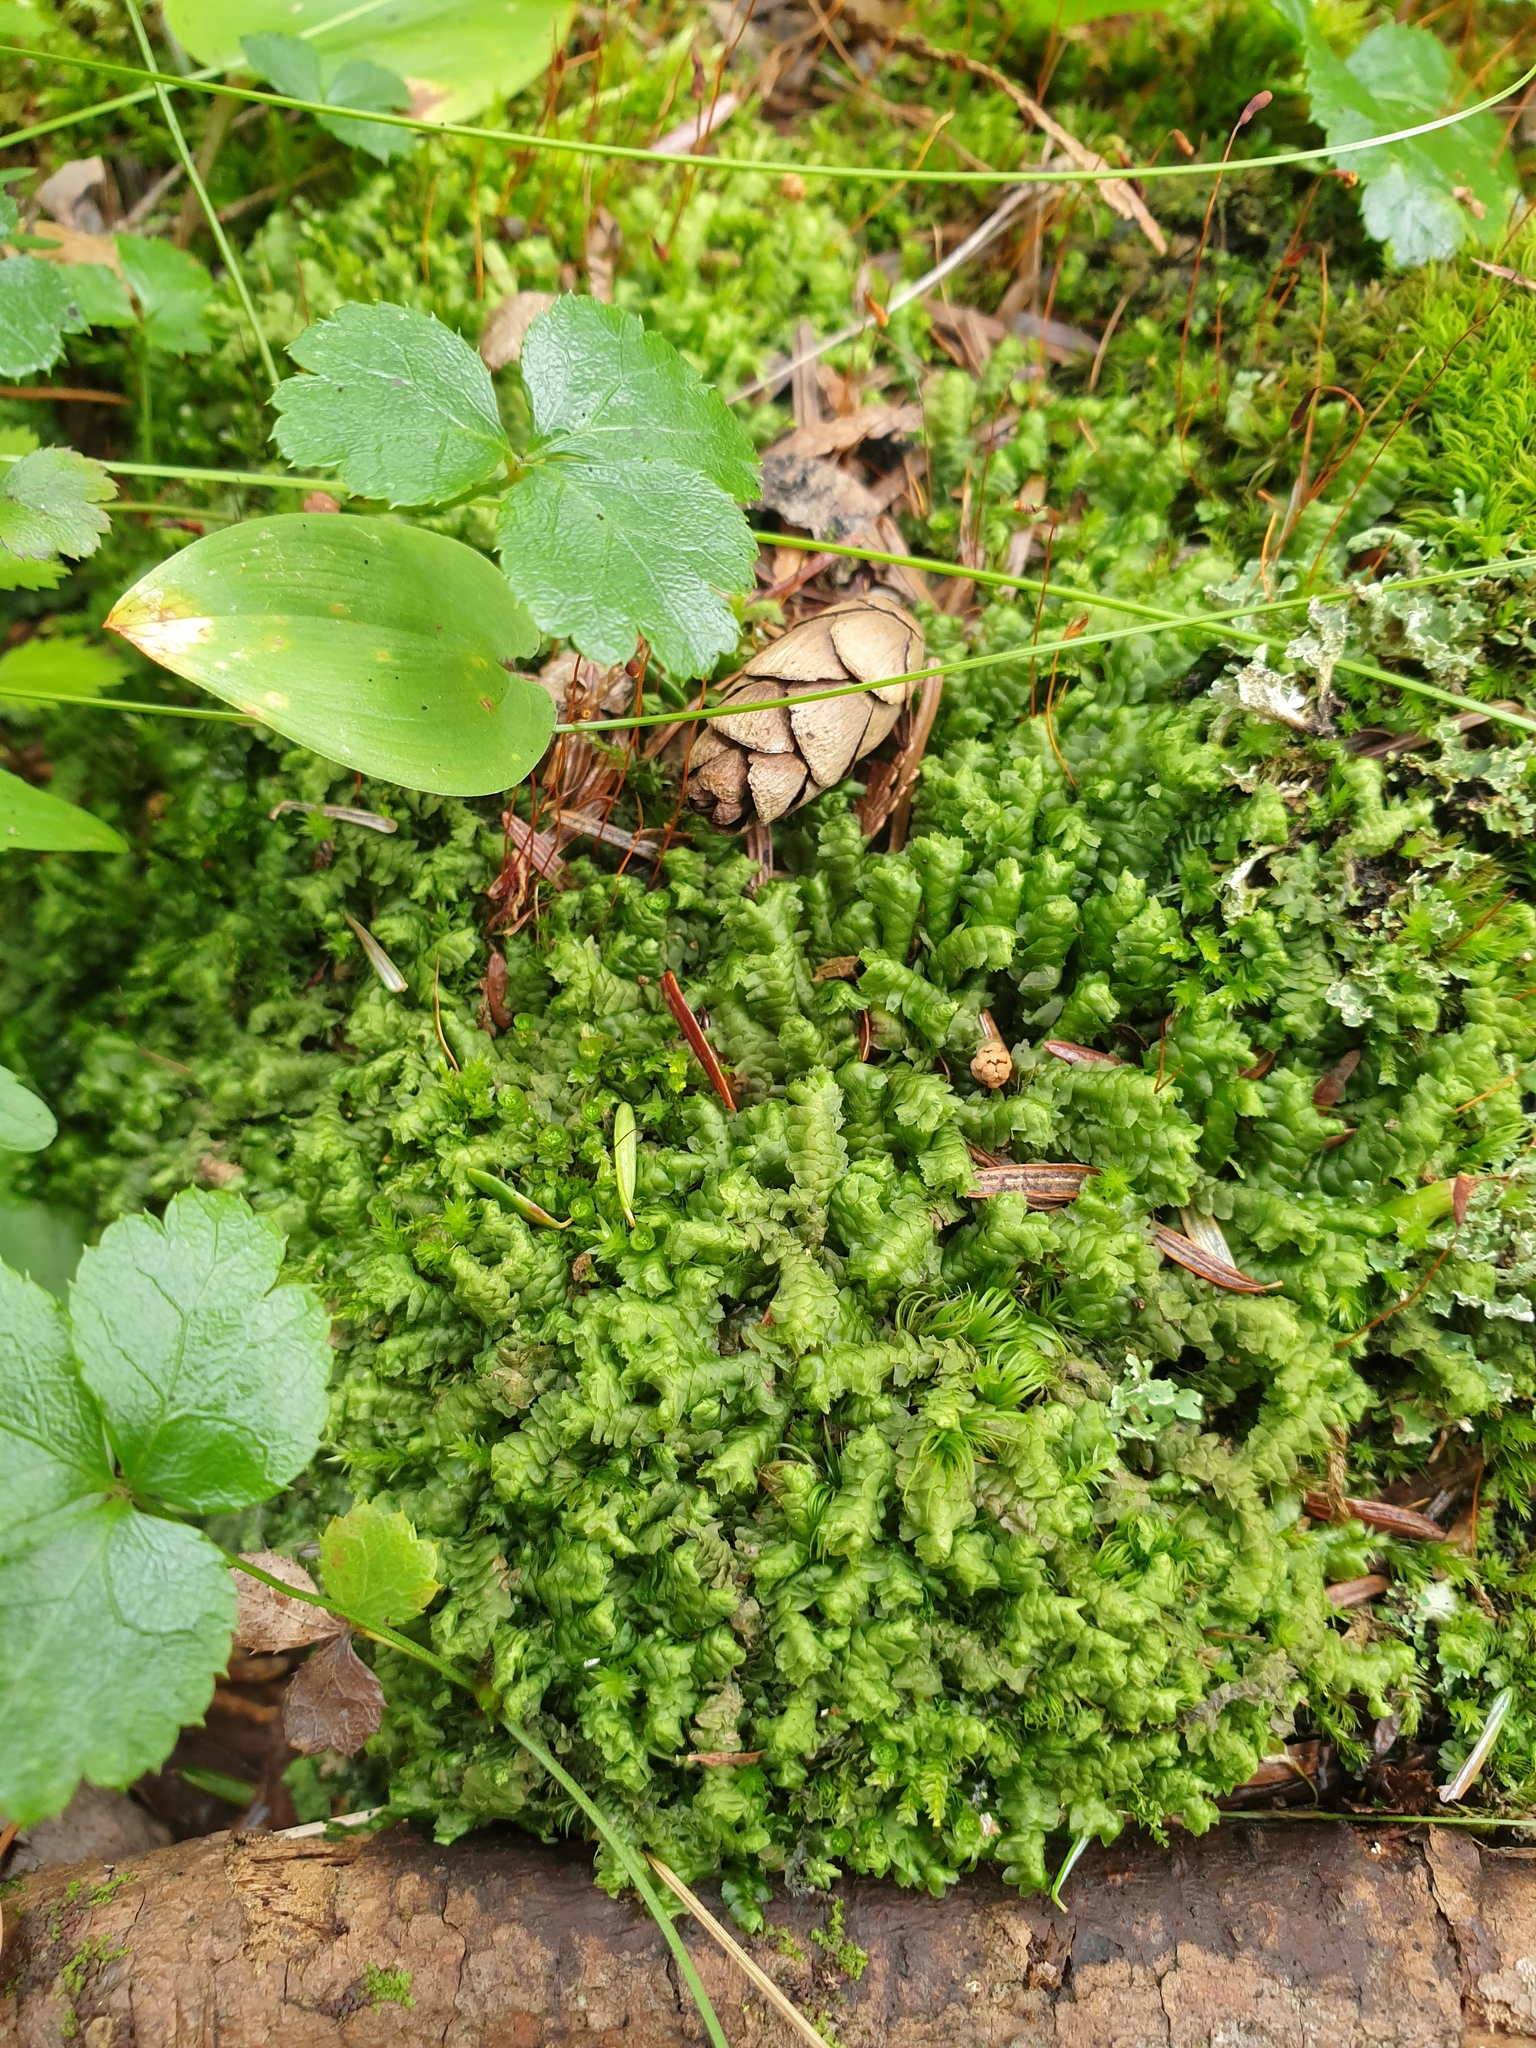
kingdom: Plantae
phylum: Marchantiophyta
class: Jungermanniopsida
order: Jungermanniales
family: Lepidoziaceae
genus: Bazzania
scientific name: Bazzania trilobata
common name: Three-lobed whipwort
